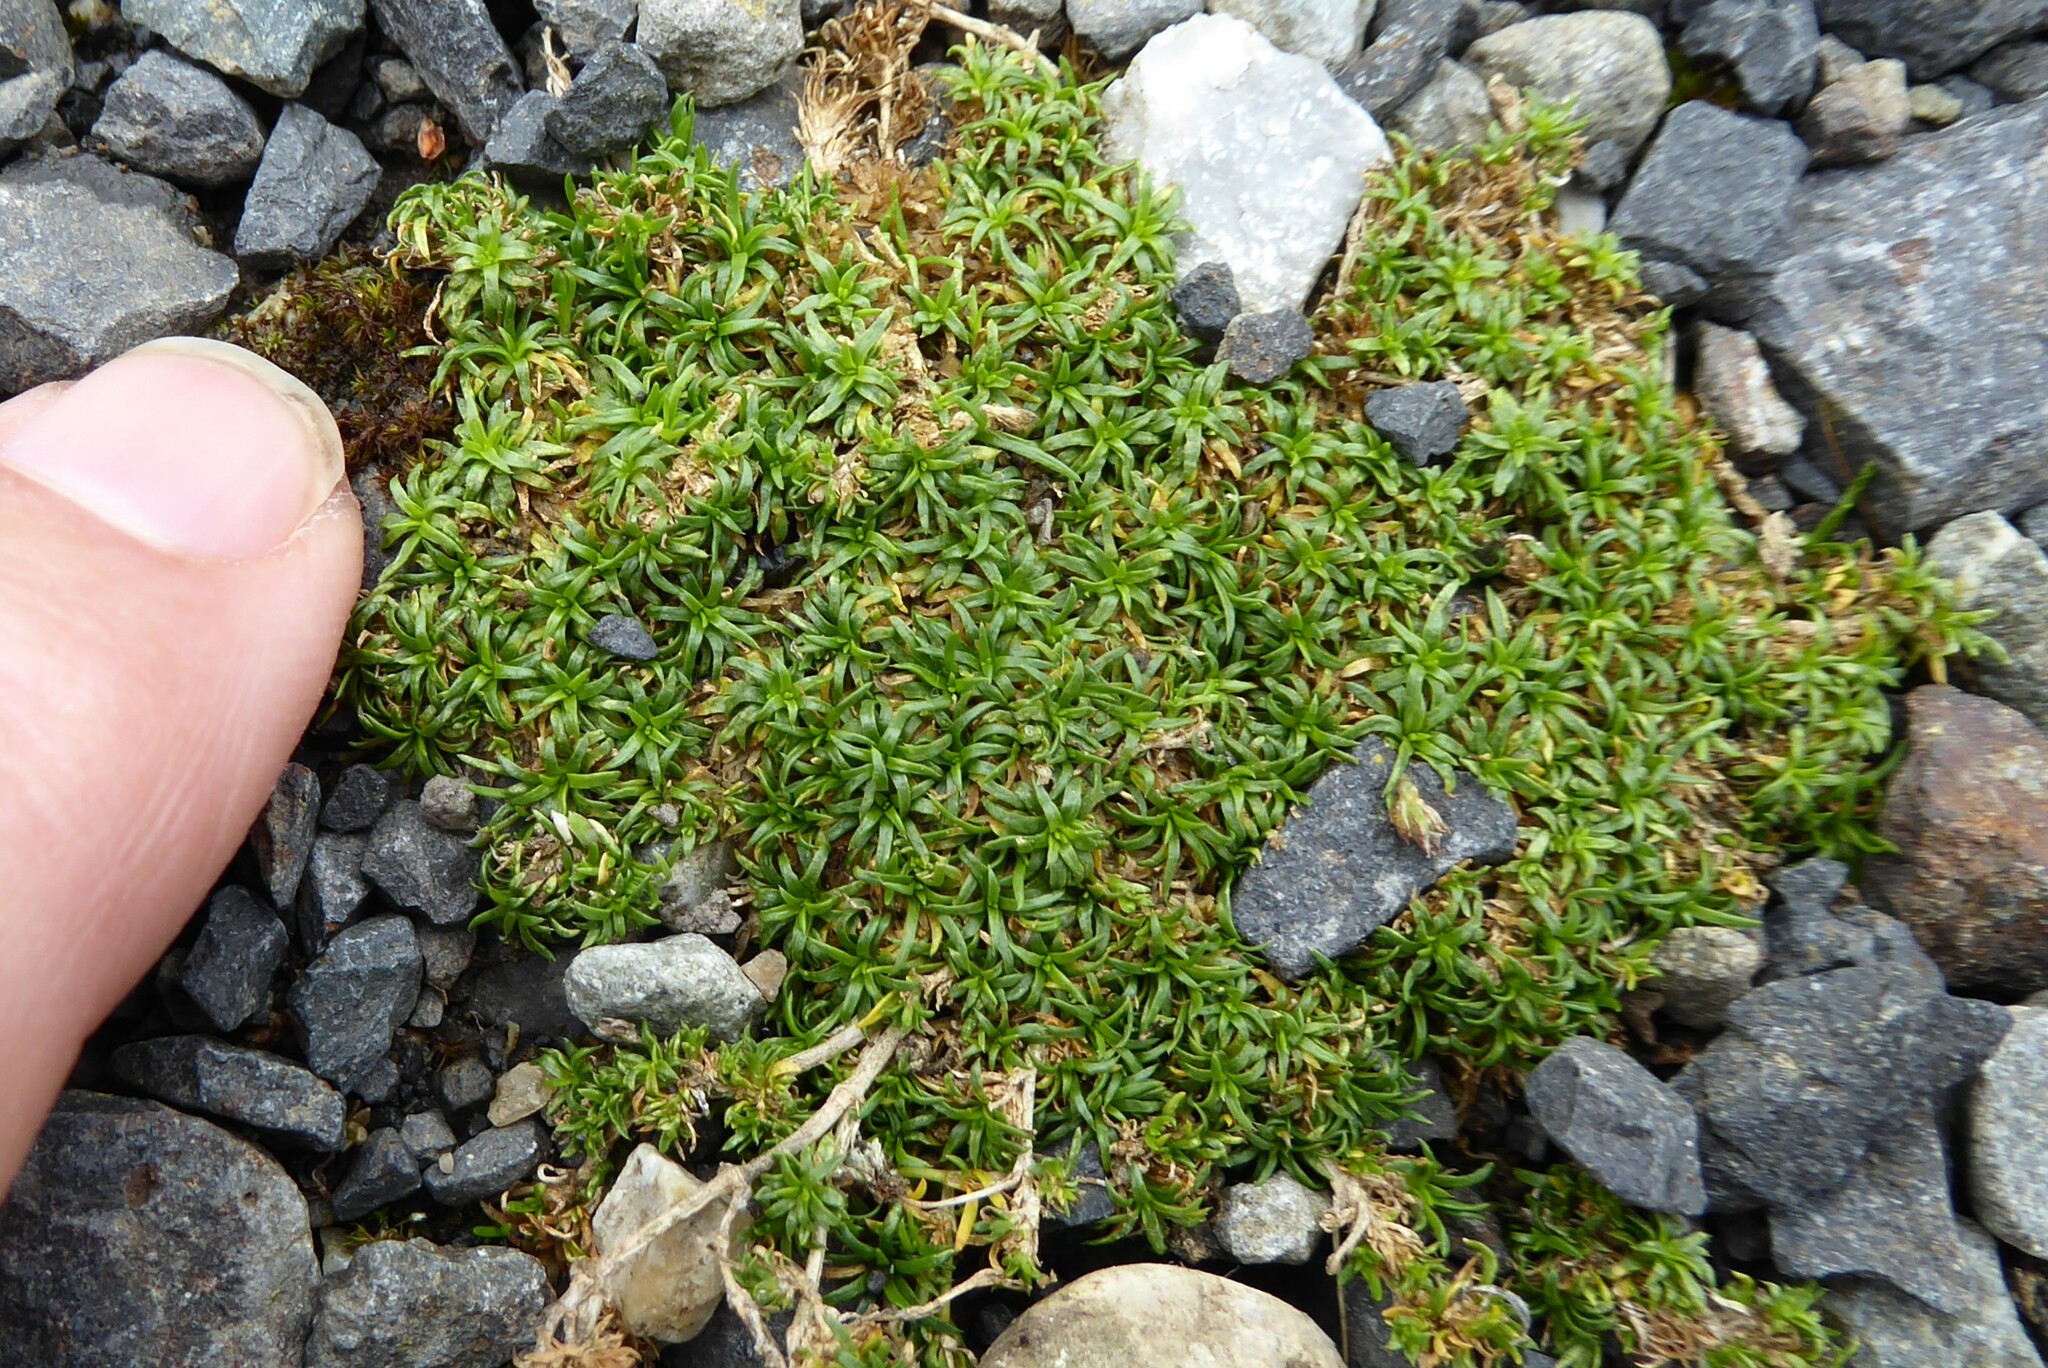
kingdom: Plantae
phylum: Tracheophyta
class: Magnoliopsida
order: Caryophyllales
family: Caryophyllaceae
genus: Sagina
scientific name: Sagina procumbens
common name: Procumbent pearlwort
